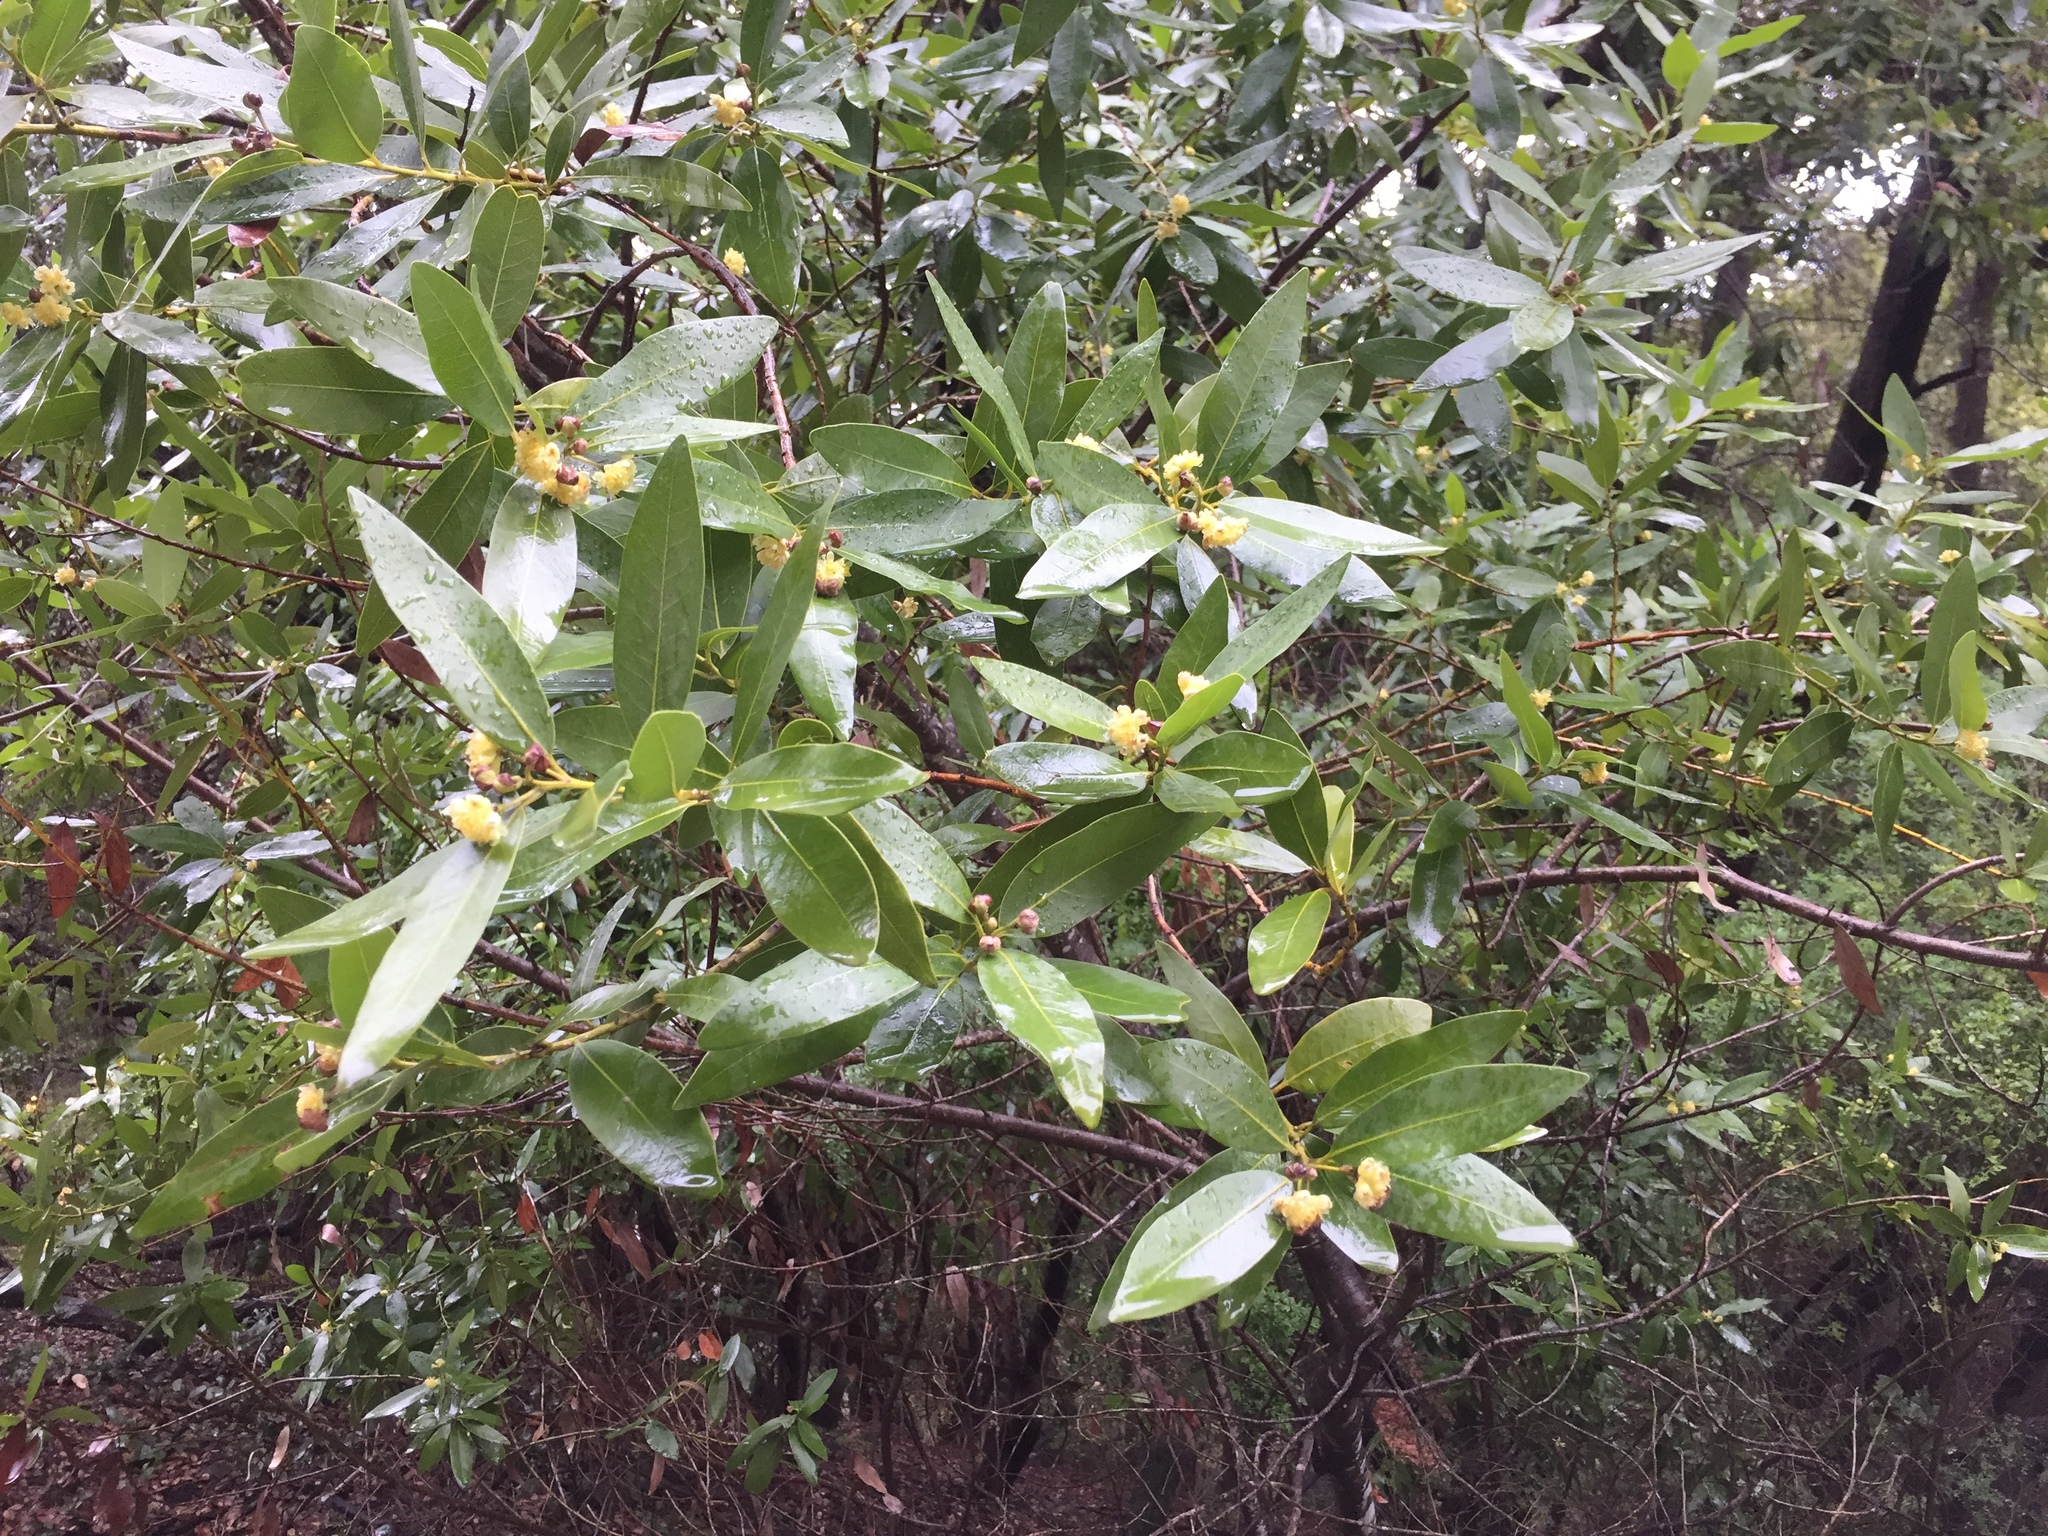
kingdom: Plantae
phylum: Tracheophyta
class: Magnoliopsida
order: Laurales
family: Lauraceae
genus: Umbellularia
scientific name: Umbellularia californica
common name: California bay
